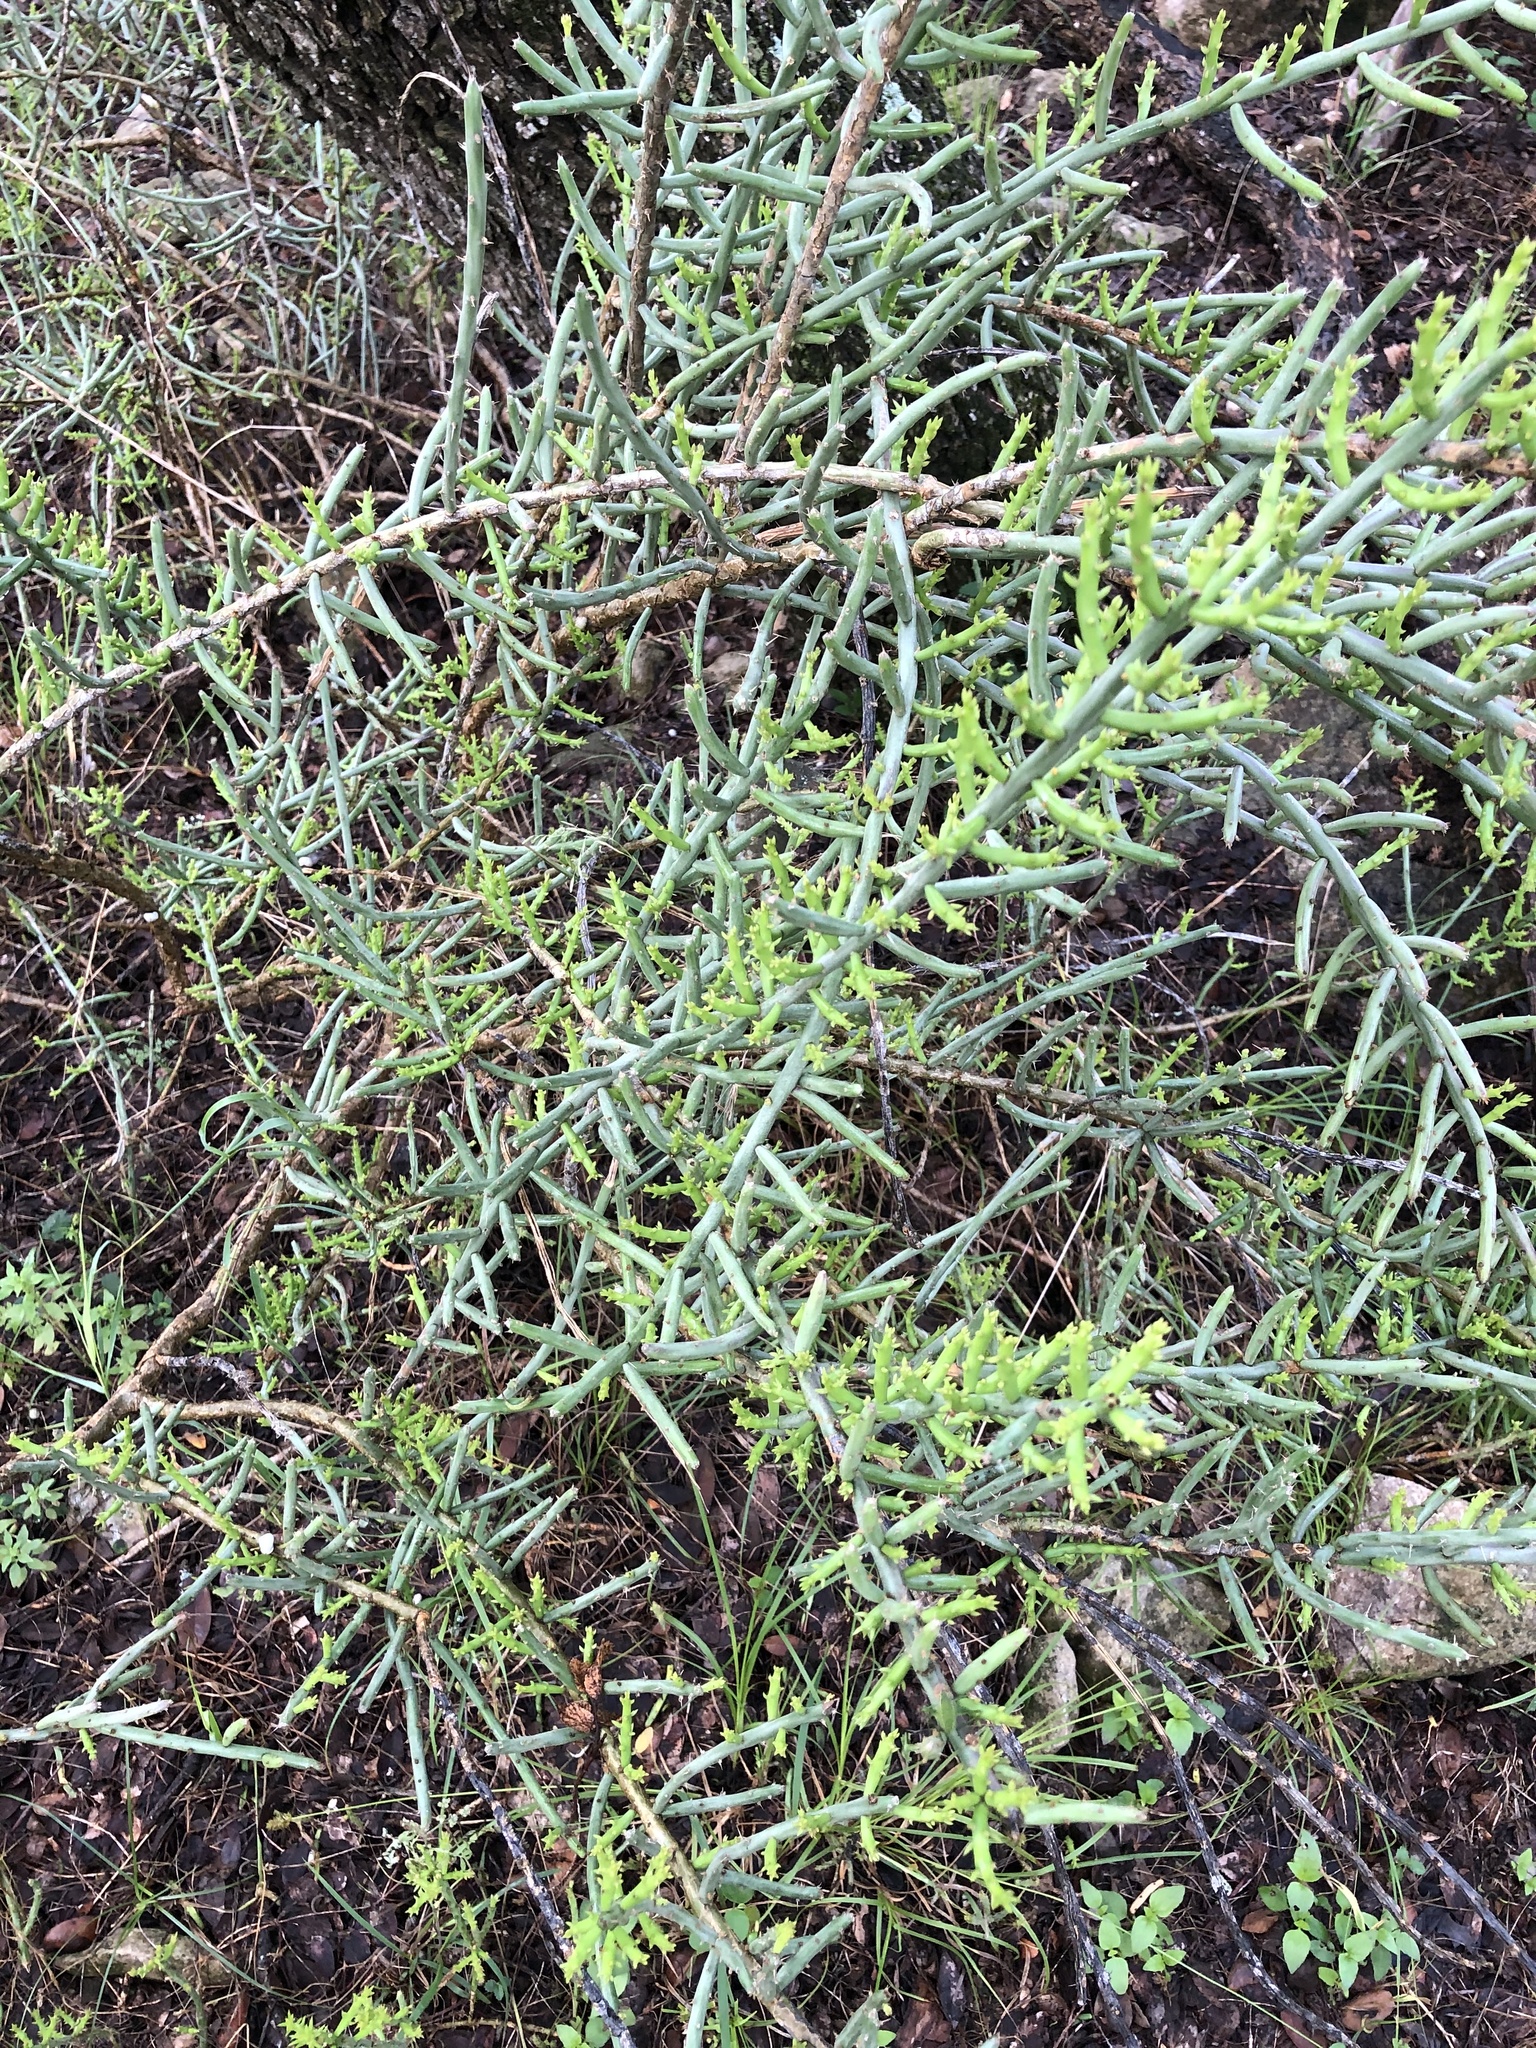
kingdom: Plantae
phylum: Tracheophyta
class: Magnoliopsida
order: Caryophyllales
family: Cactaceae
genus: Cylindropuntia
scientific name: Cylindropuntia leptocaulis
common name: Christmas cactus
